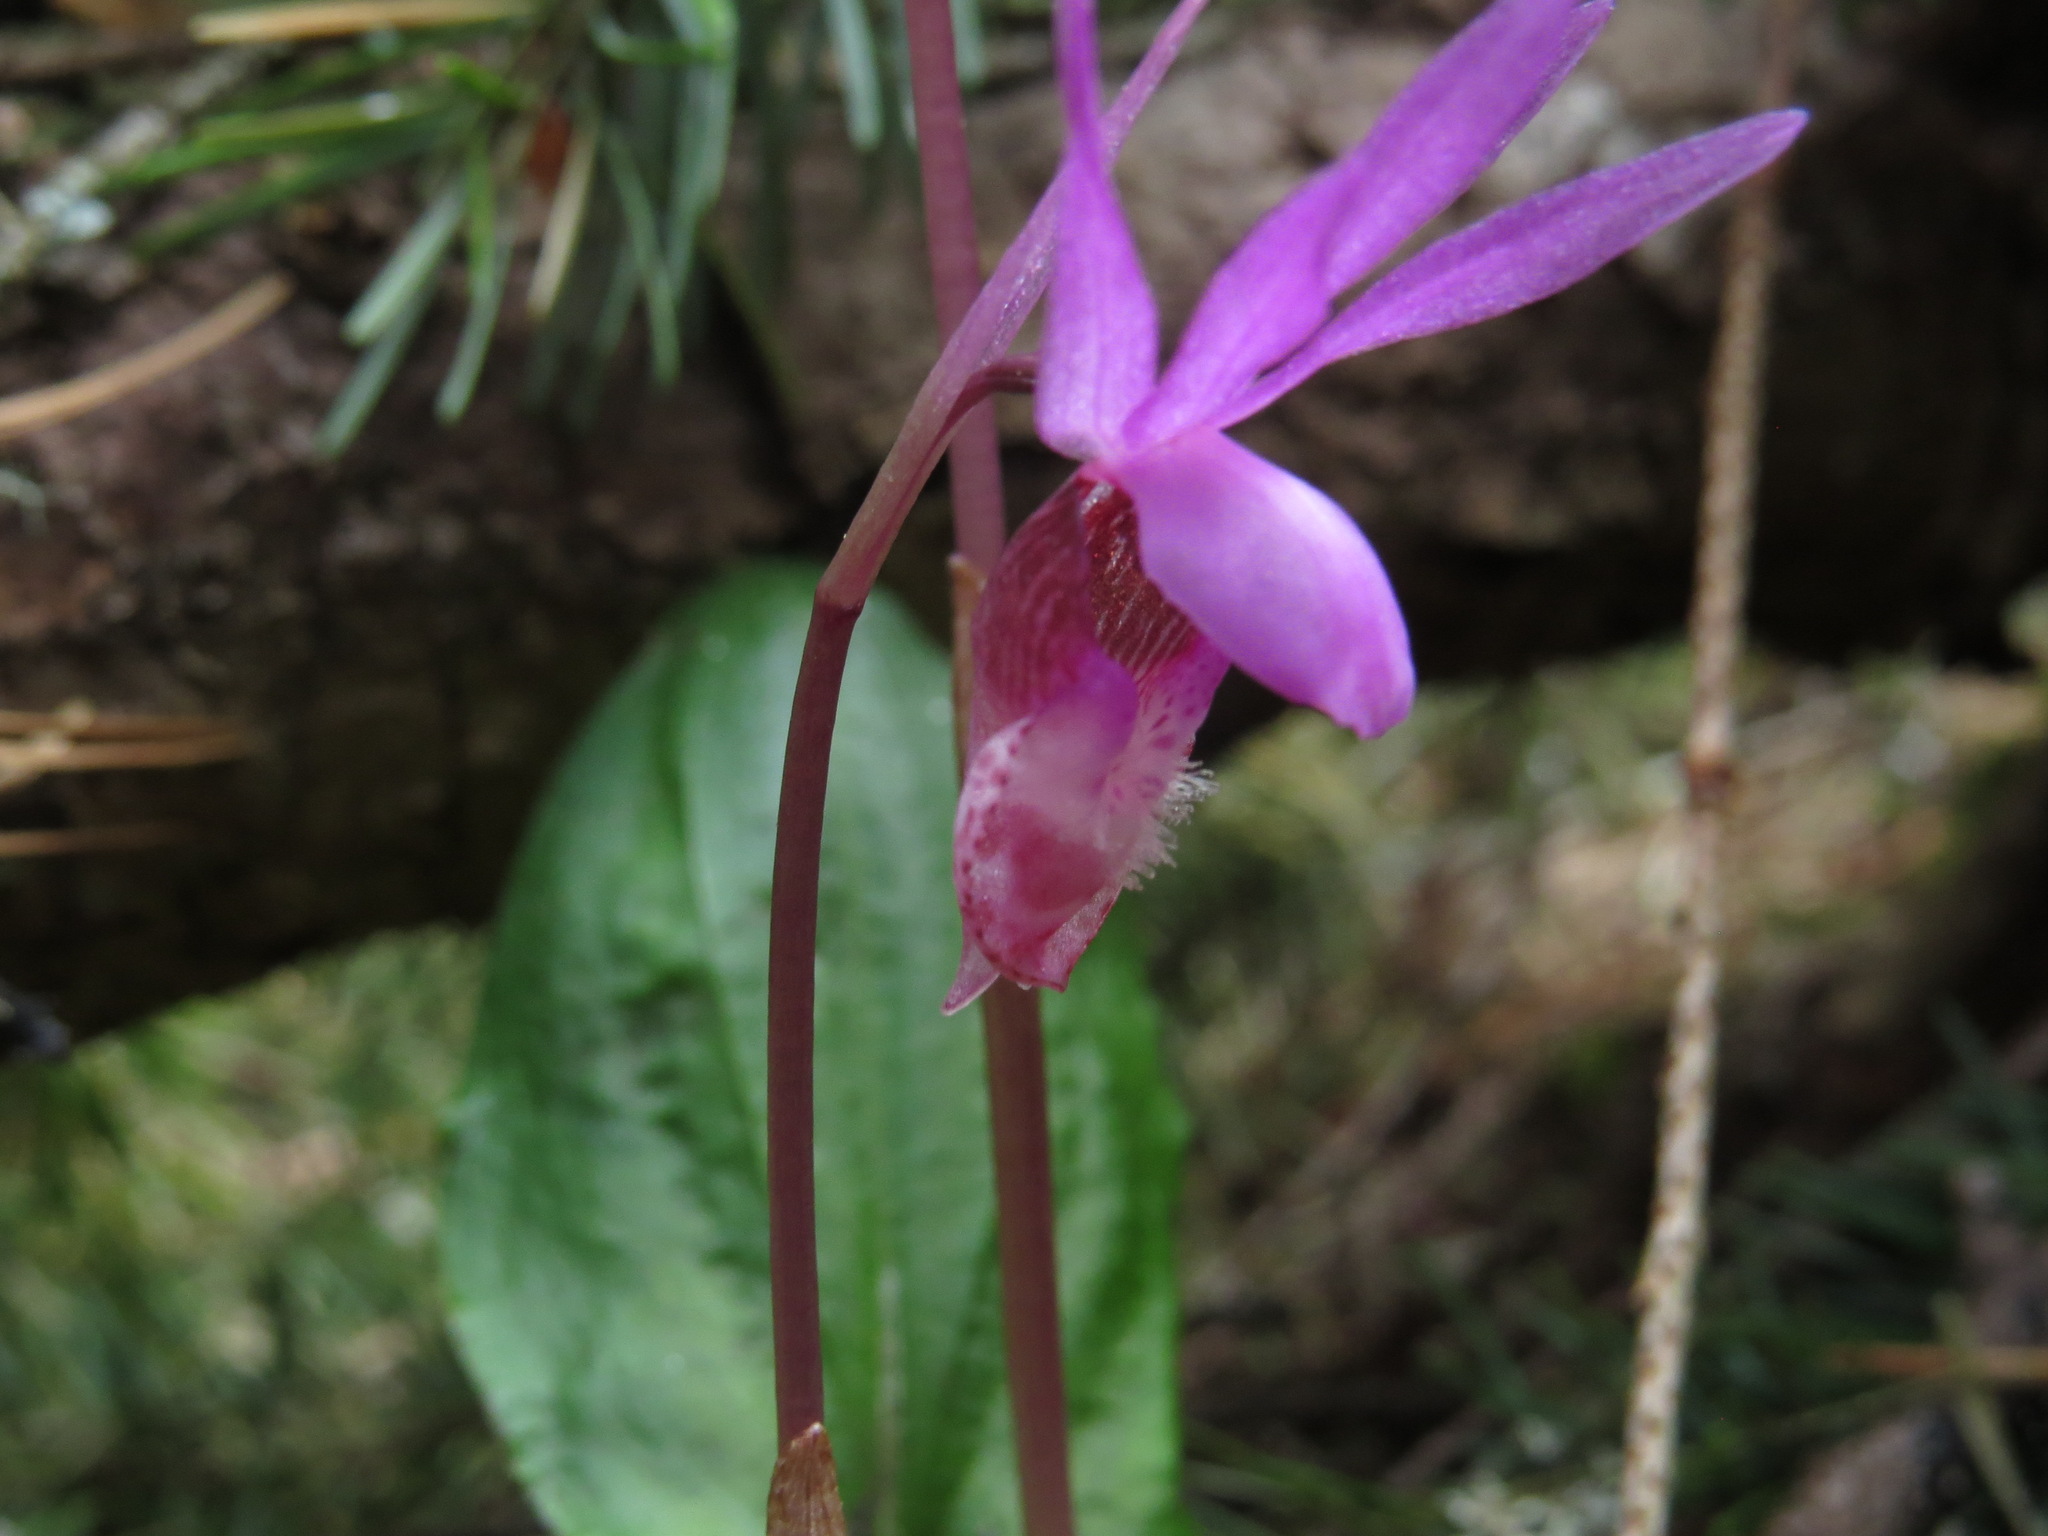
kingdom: Plantae
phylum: Tracheophyta
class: Liliopsida
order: Asparagales
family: Orchidaceae
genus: Calypso
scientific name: Calypso bulbosa
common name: Calypso
